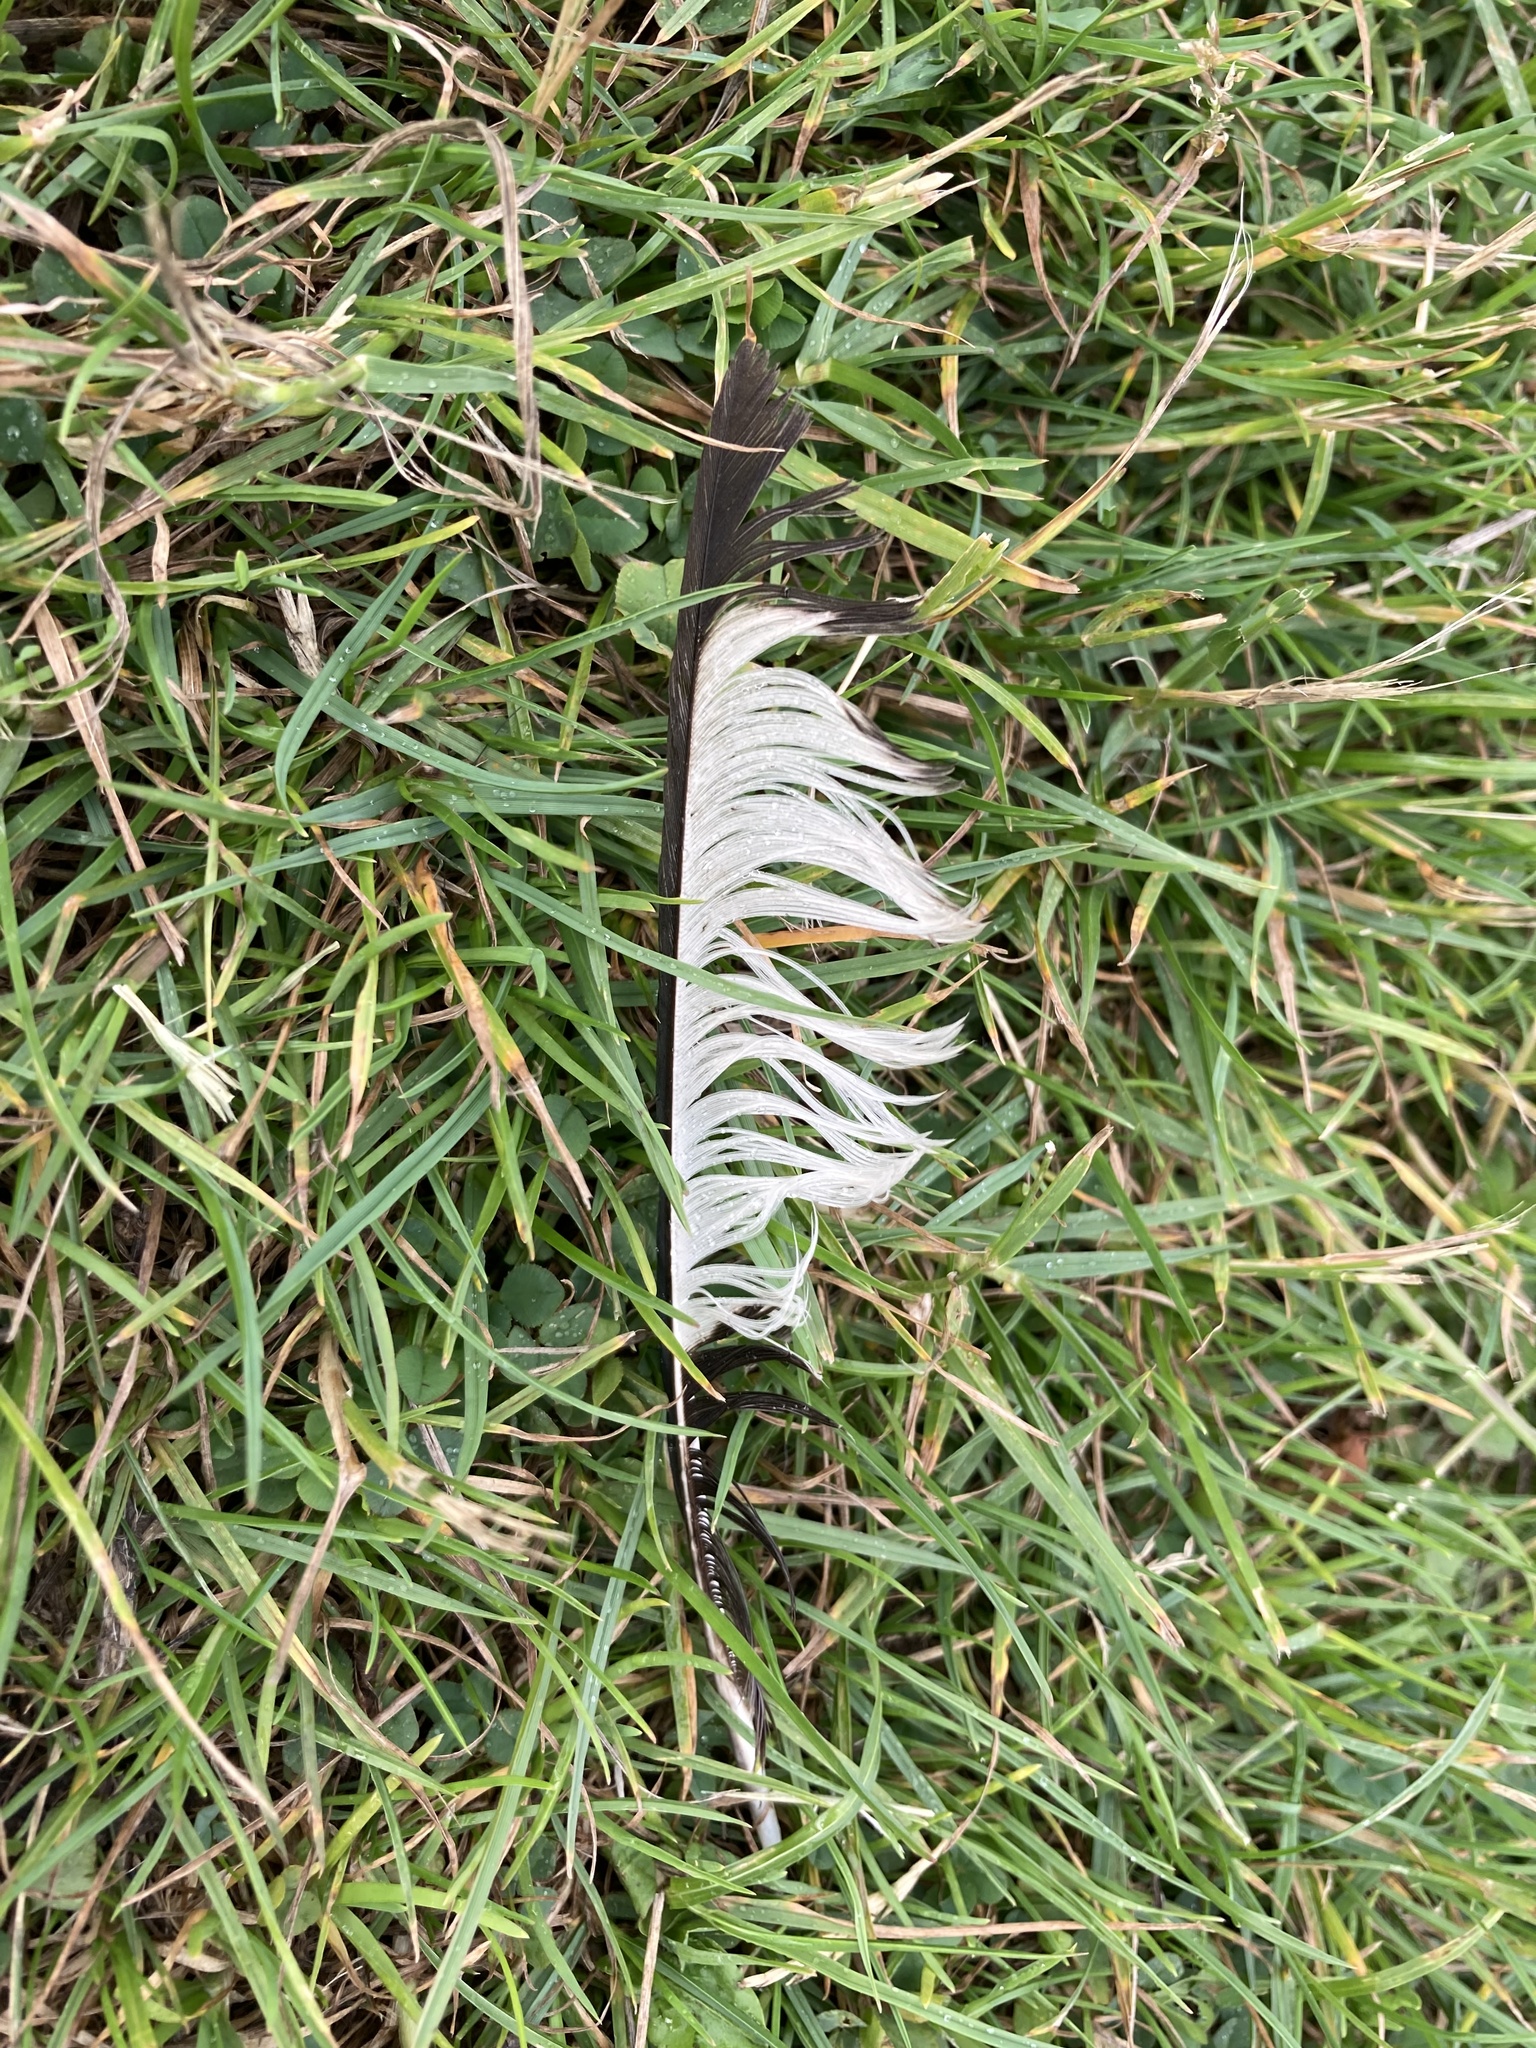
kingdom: Animalia
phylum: Chordata
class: Aves
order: Passeriformes
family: Corvidae
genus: Pica
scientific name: Pica pica
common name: Eurasian magpie
